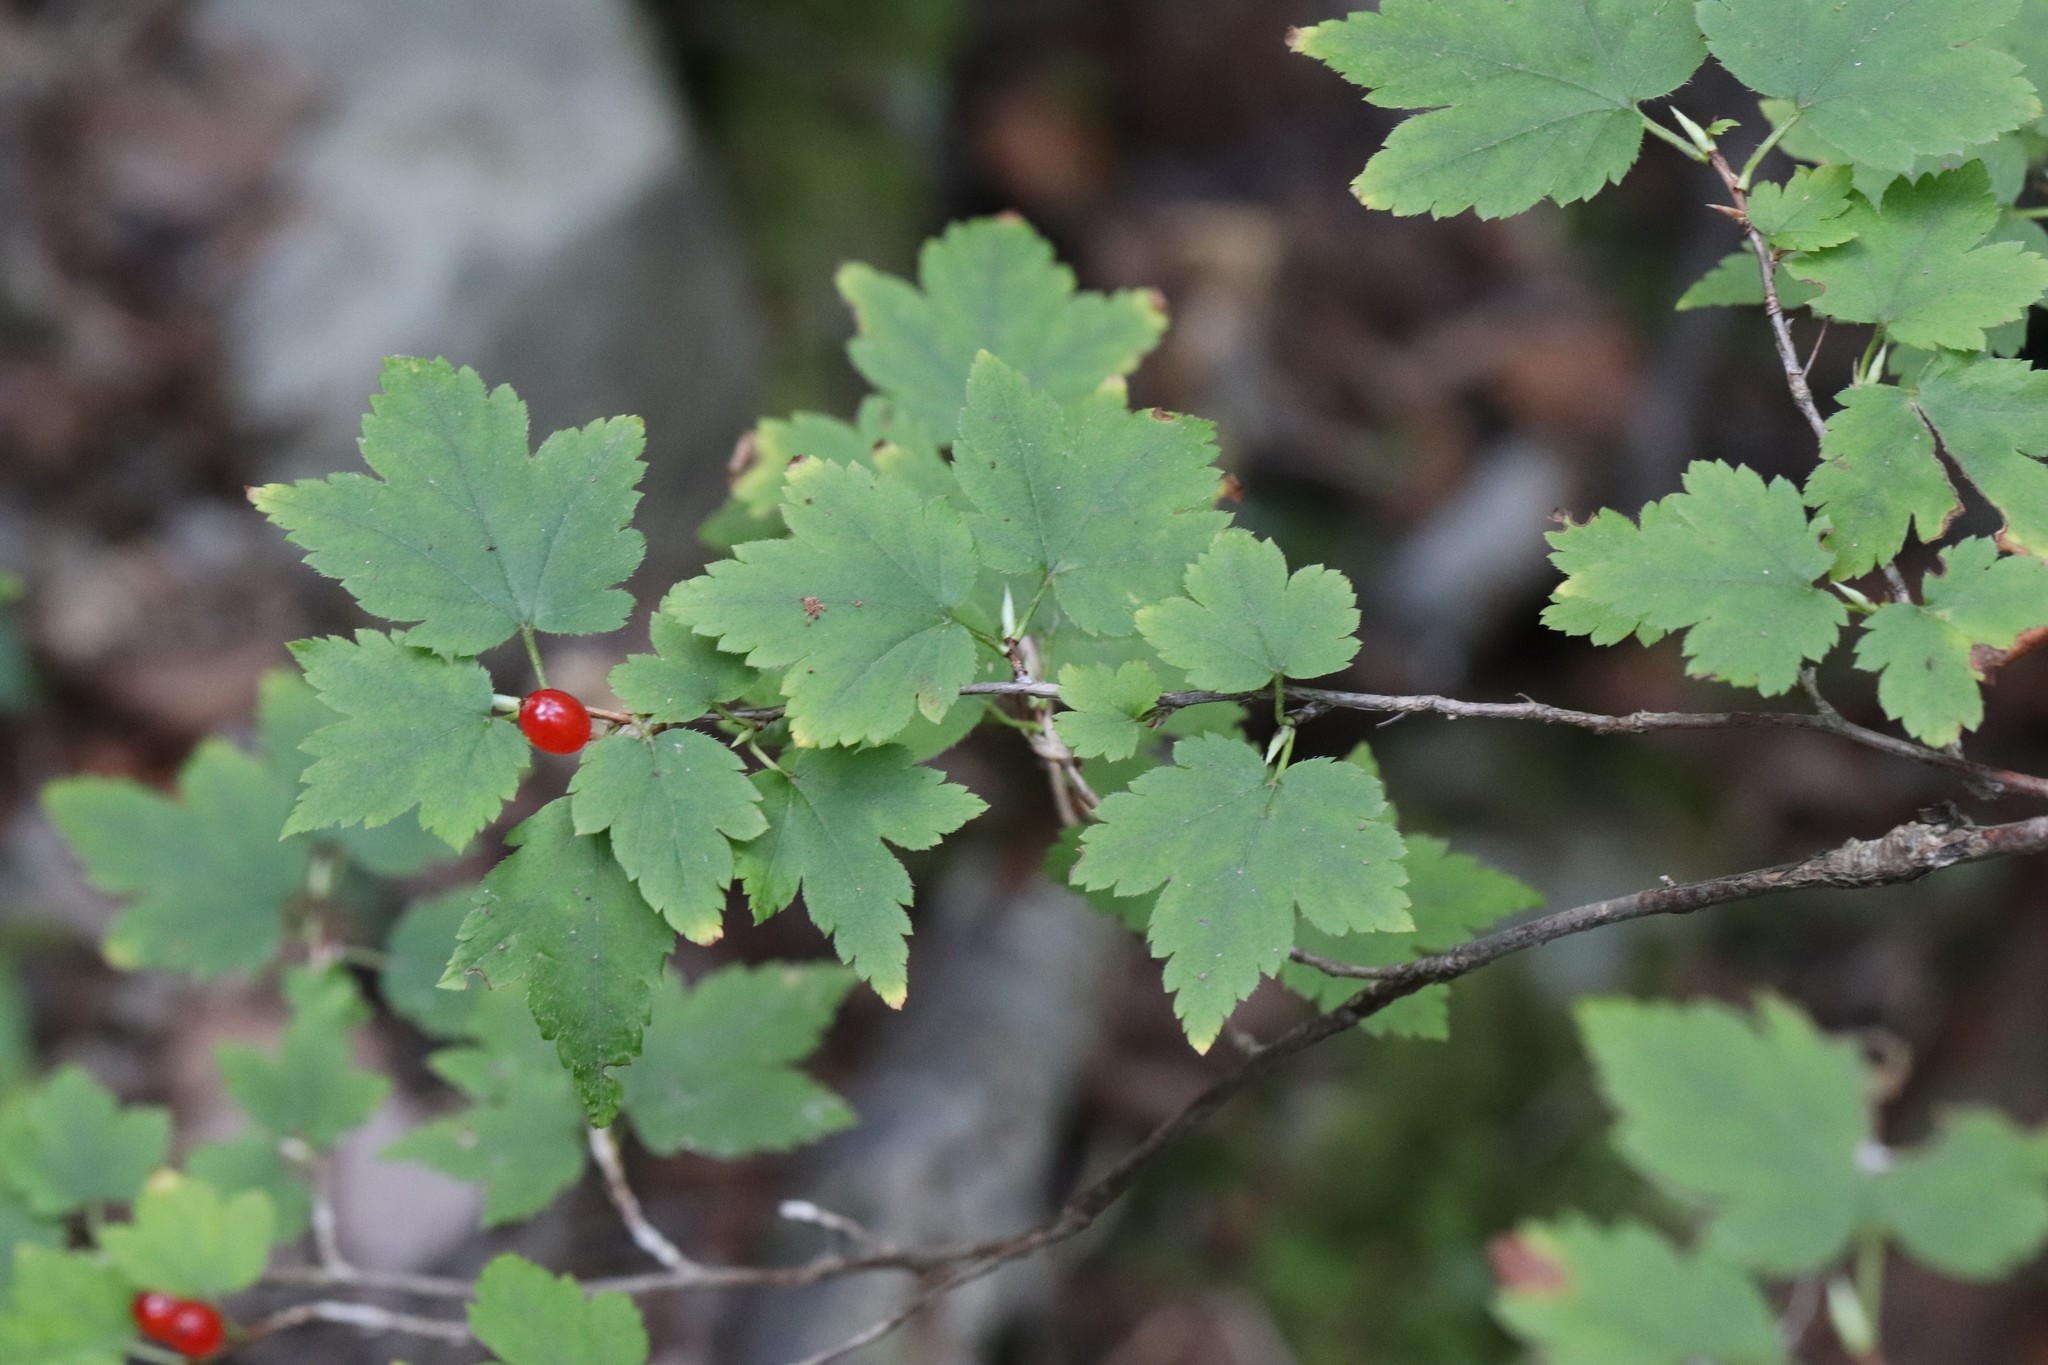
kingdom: Plantae
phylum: Tracheophyta
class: Magnoliopsida
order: Saxifragales
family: Grossulariaceae
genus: Ribes
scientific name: Ribes maximoviczianum
